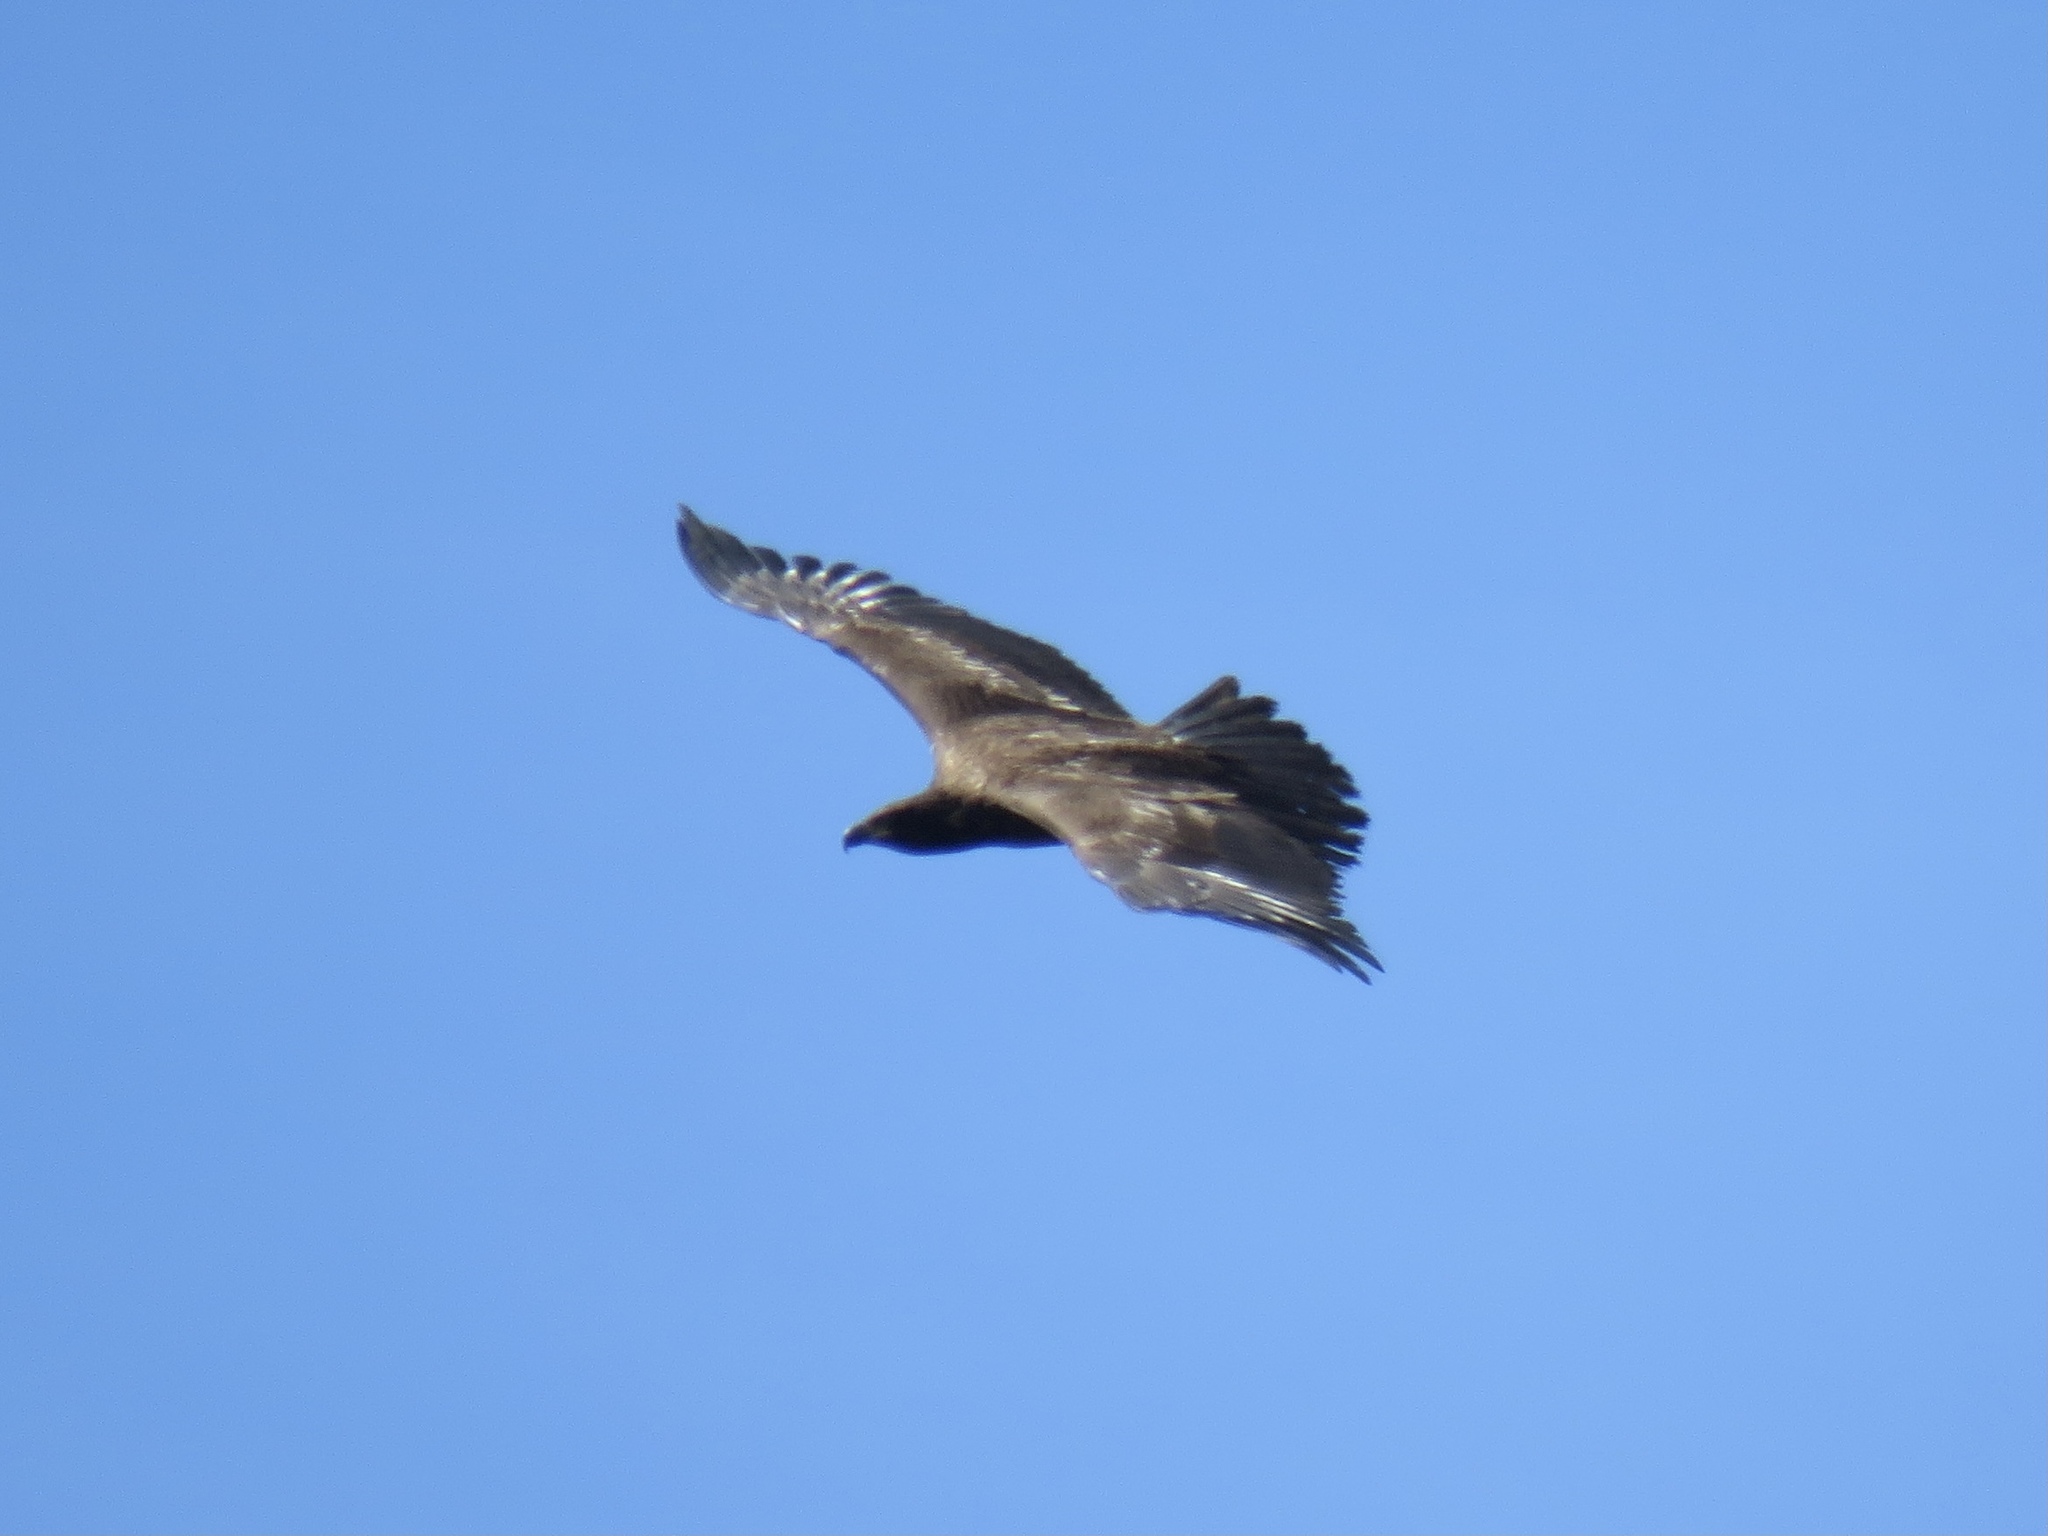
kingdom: Animalia
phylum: Chordata
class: Aves
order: Accipitriformes
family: Accipitridae
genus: Haliaeetus
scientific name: Haliaeetus leucocephalus
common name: Bald eagle
